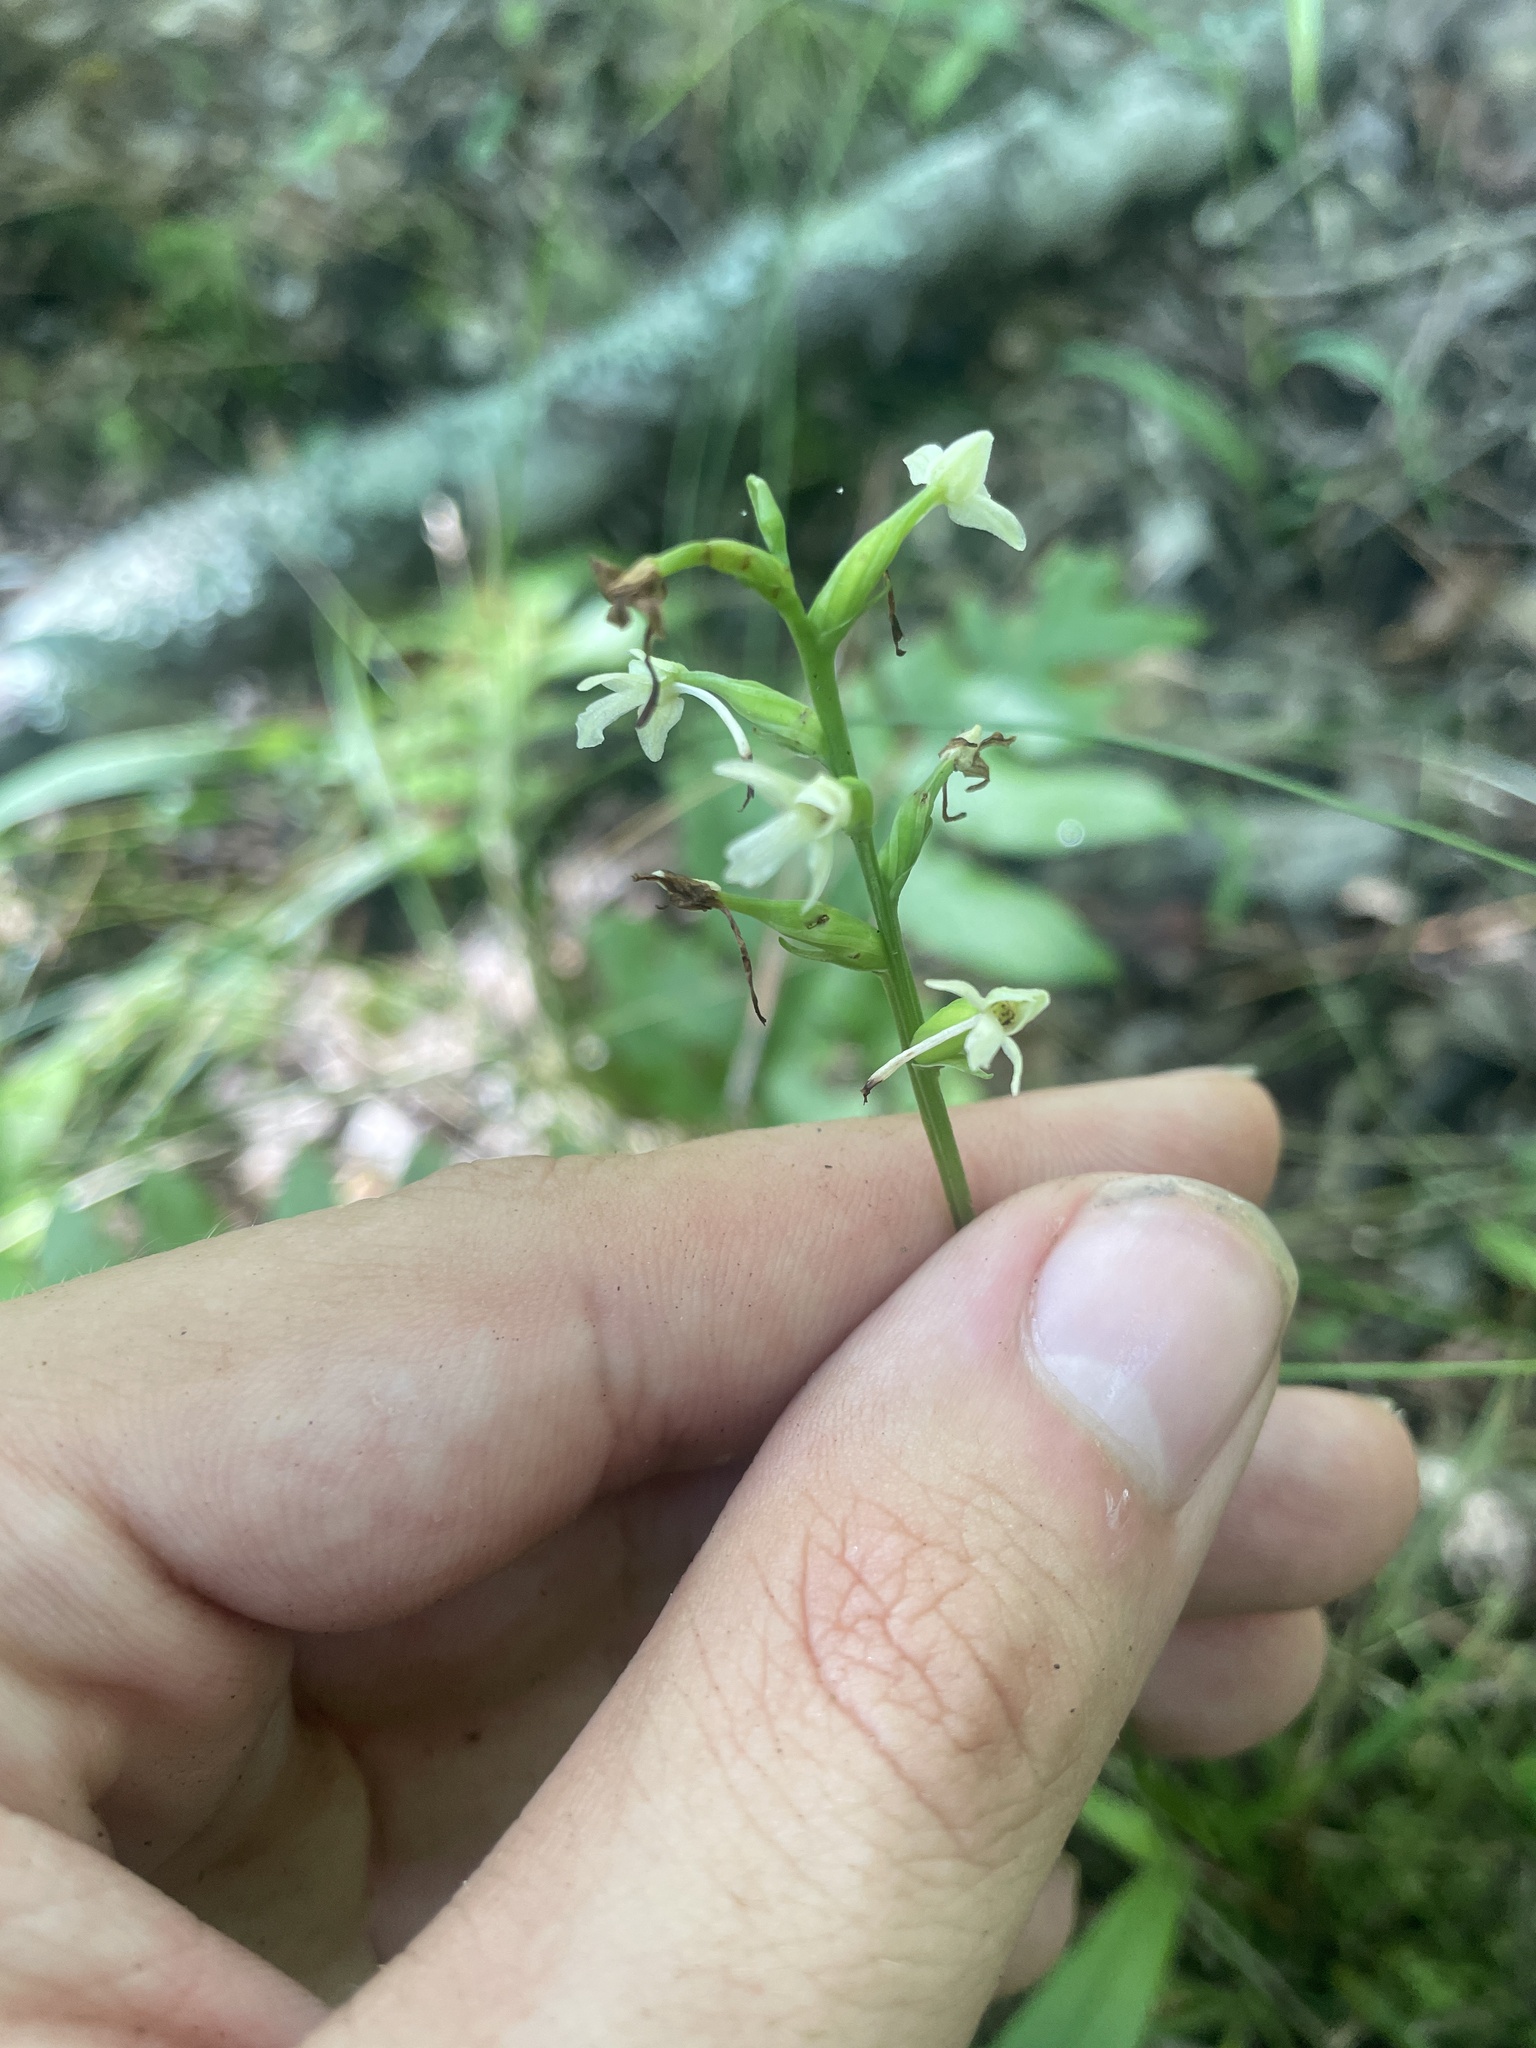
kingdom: Plantae
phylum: Tracheophyta
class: Liliopsida
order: Asparagales
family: Orchidaceae
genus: Platanthera
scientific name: Platanthera clavellata
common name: Club-spur orchid
